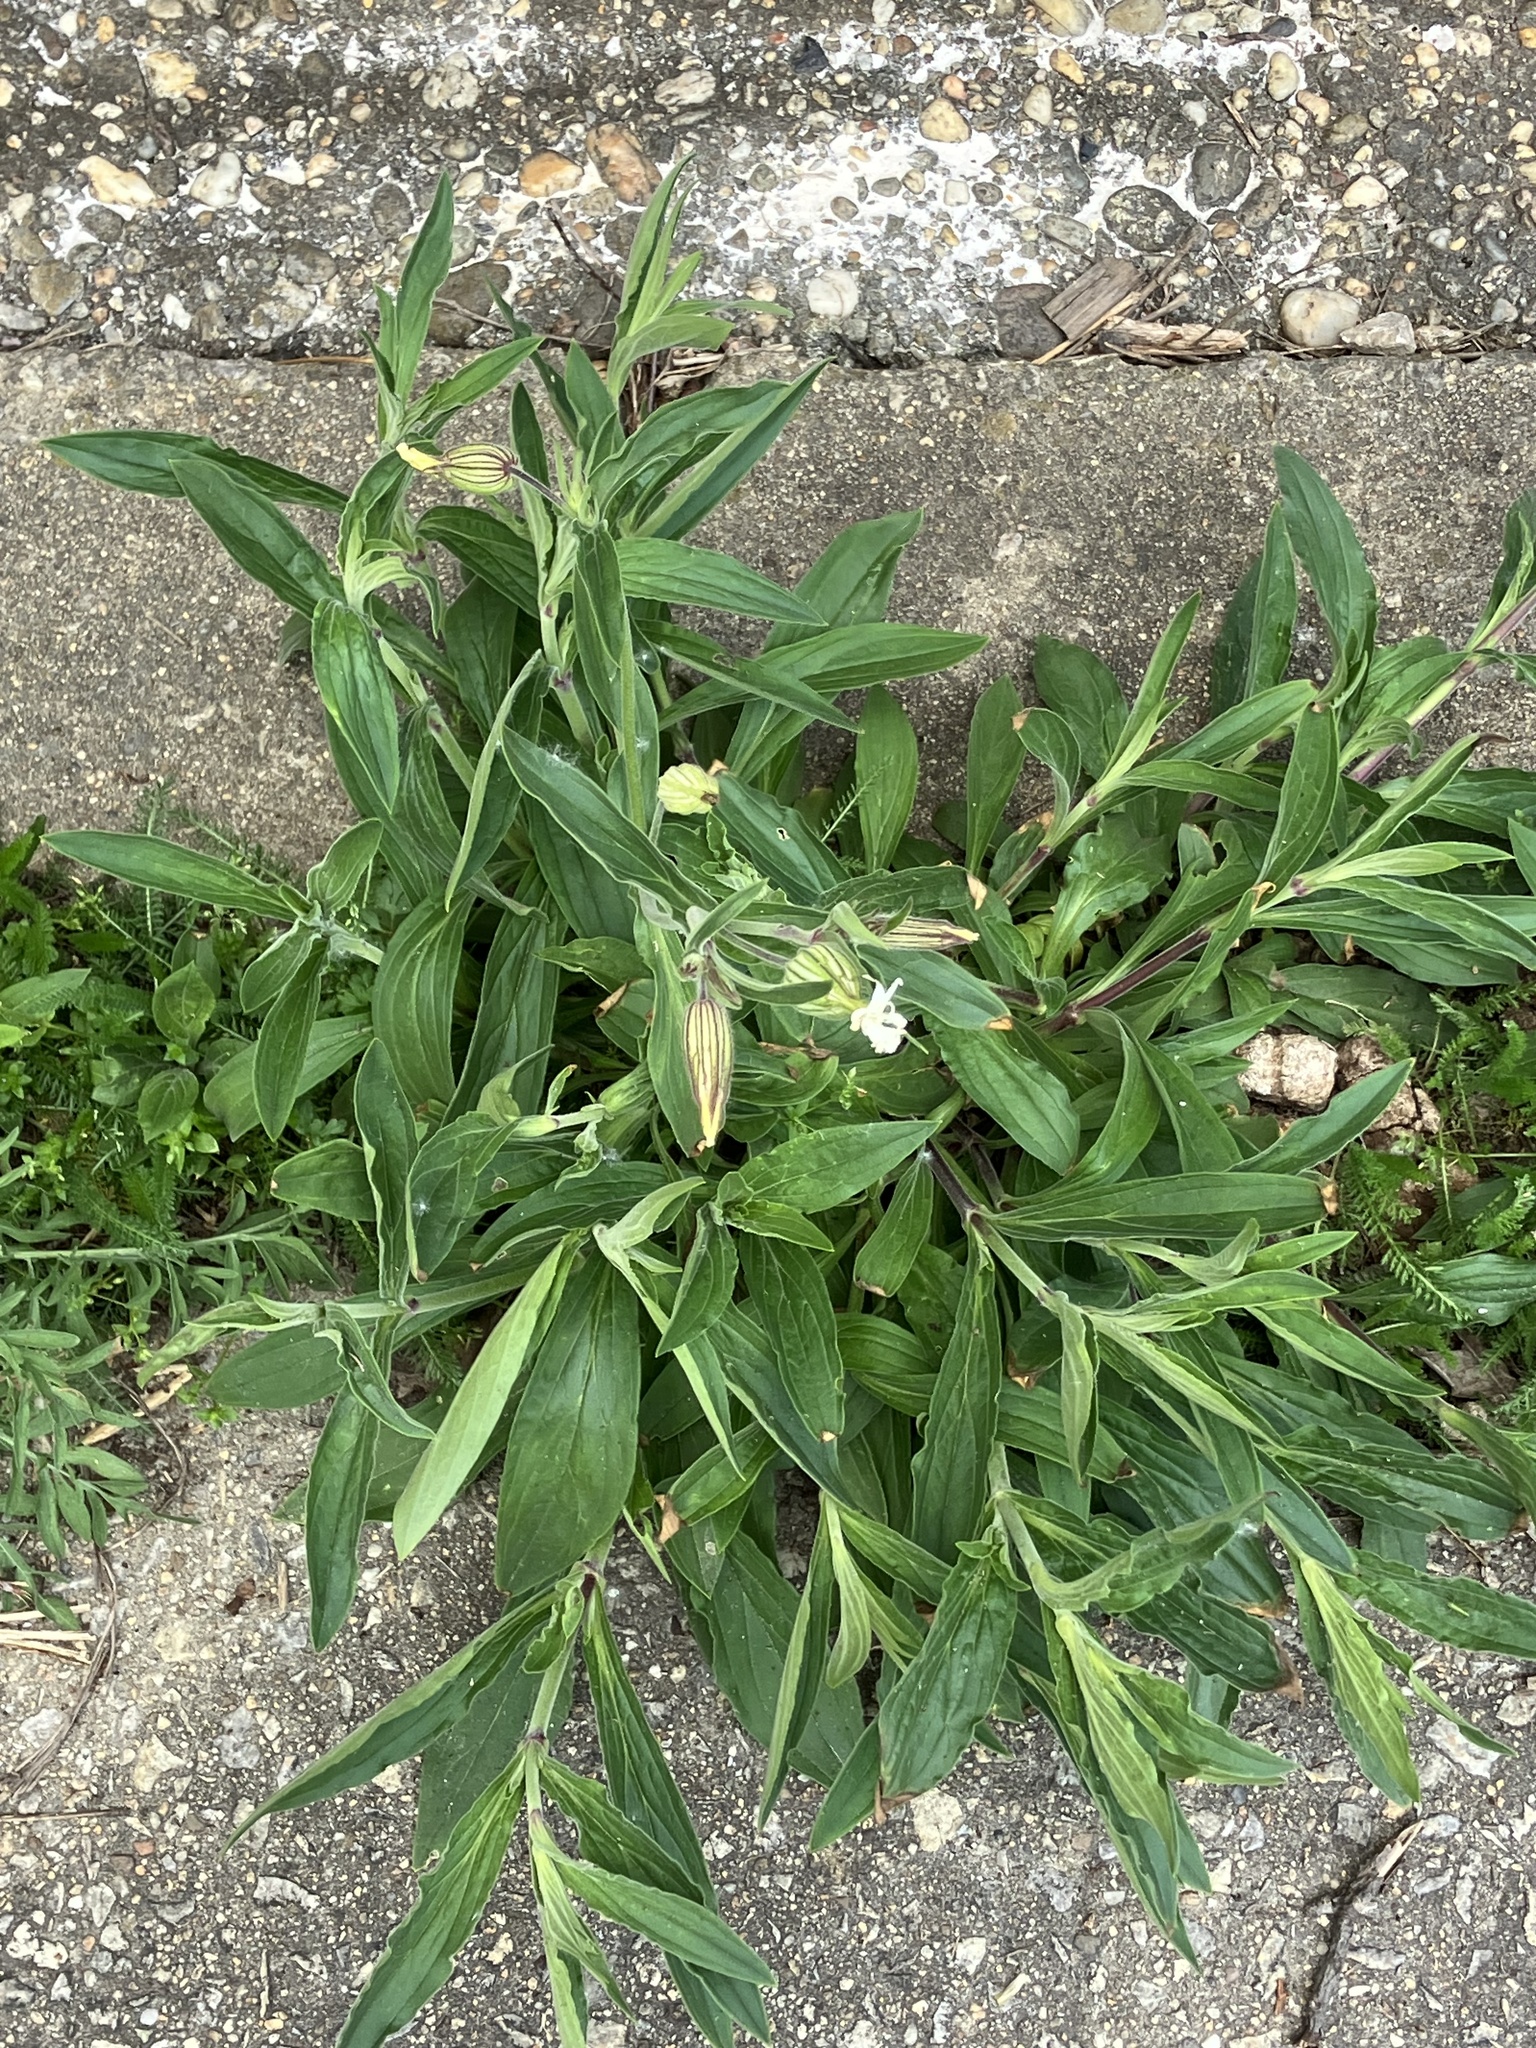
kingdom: Plantae
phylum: Tracheophyta
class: Magnoliopsida
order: Caryophyllales
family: Caryophyllaceae
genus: Silene
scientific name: Silene latifolia
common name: White campion
